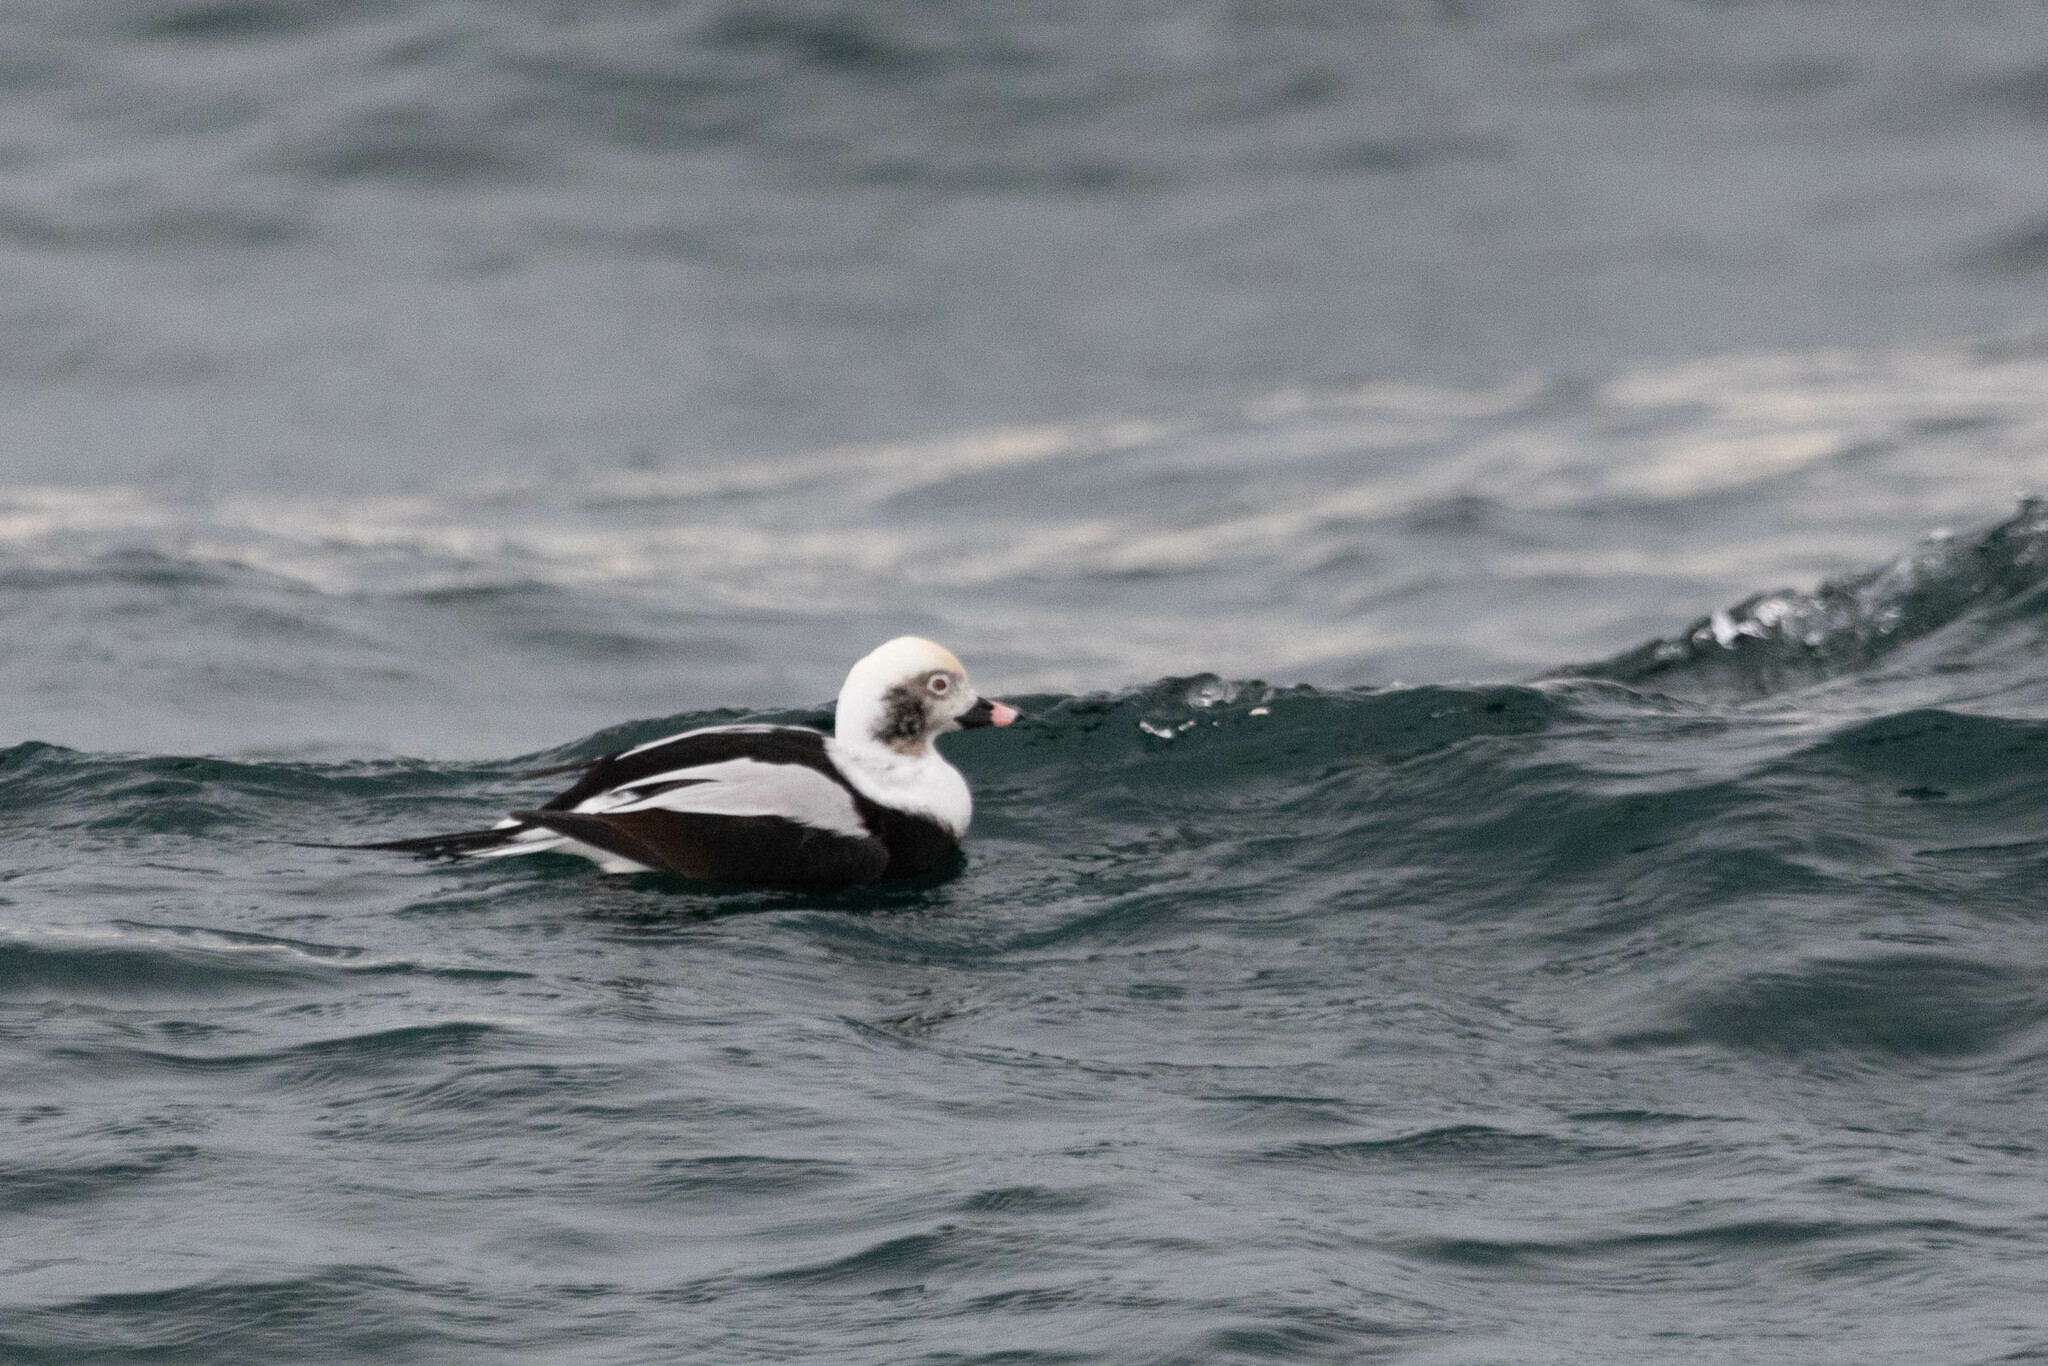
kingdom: Animalia
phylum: Chordata
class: Aves
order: Anseriformes
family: Anatidae
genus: Clangula
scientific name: Clangula hyemalis
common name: Long-tailed duck
